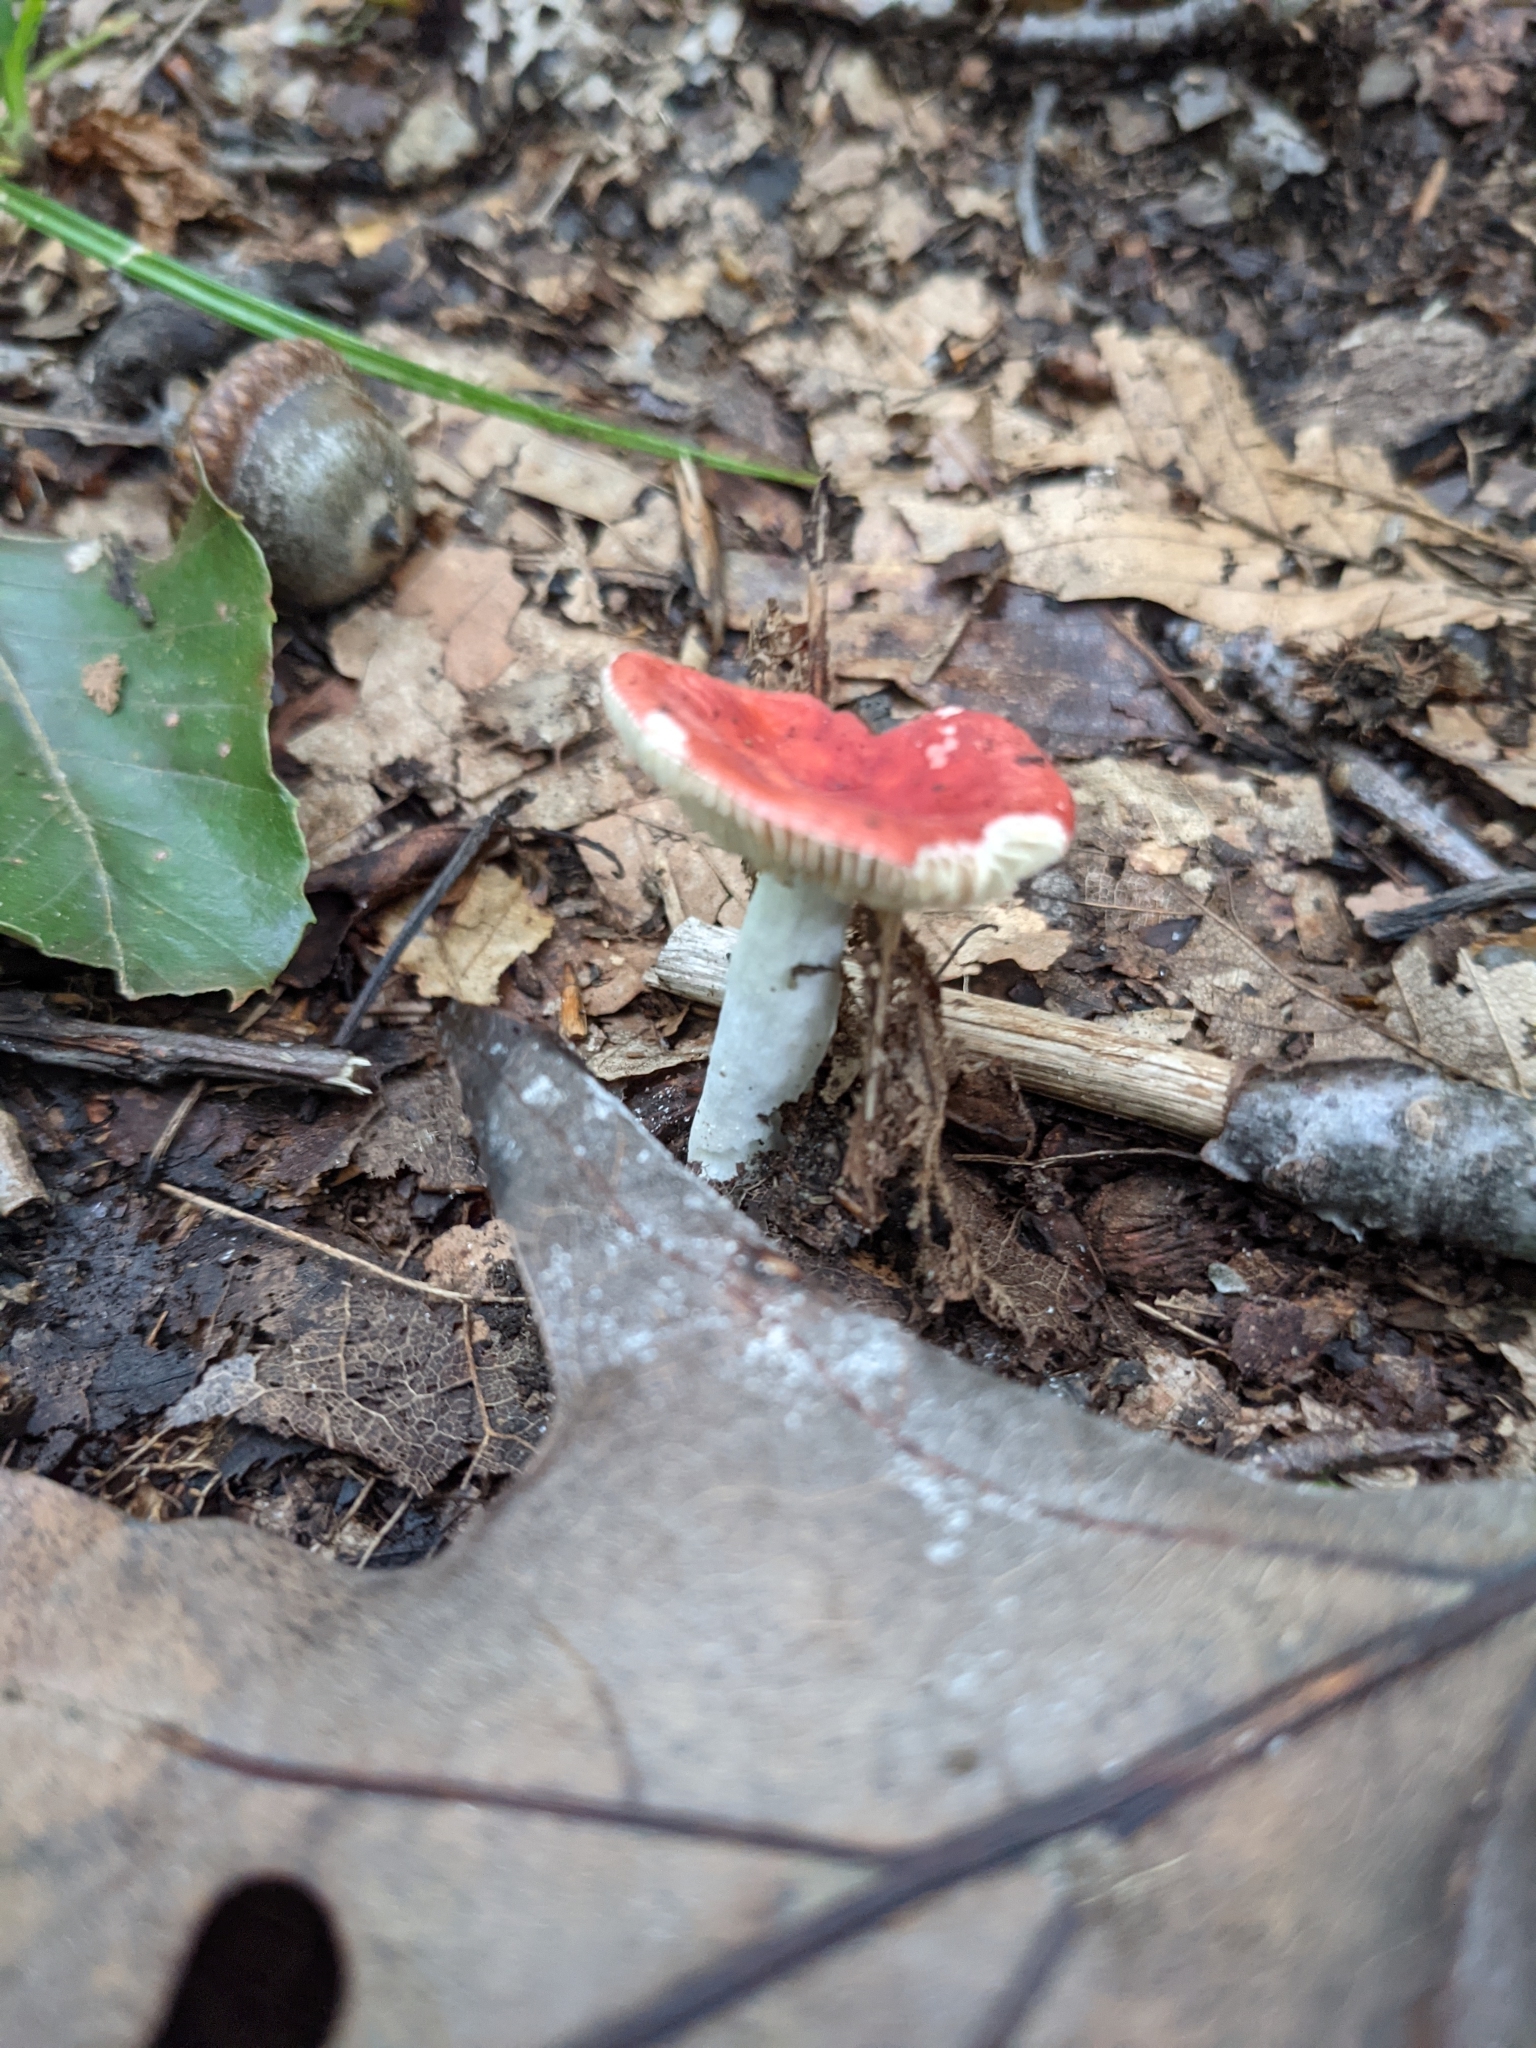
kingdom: Fungi
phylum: Basidiomycota
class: Agaricomycetes
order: Russulales
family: Russulaceae
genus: Russula
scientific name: Russula
